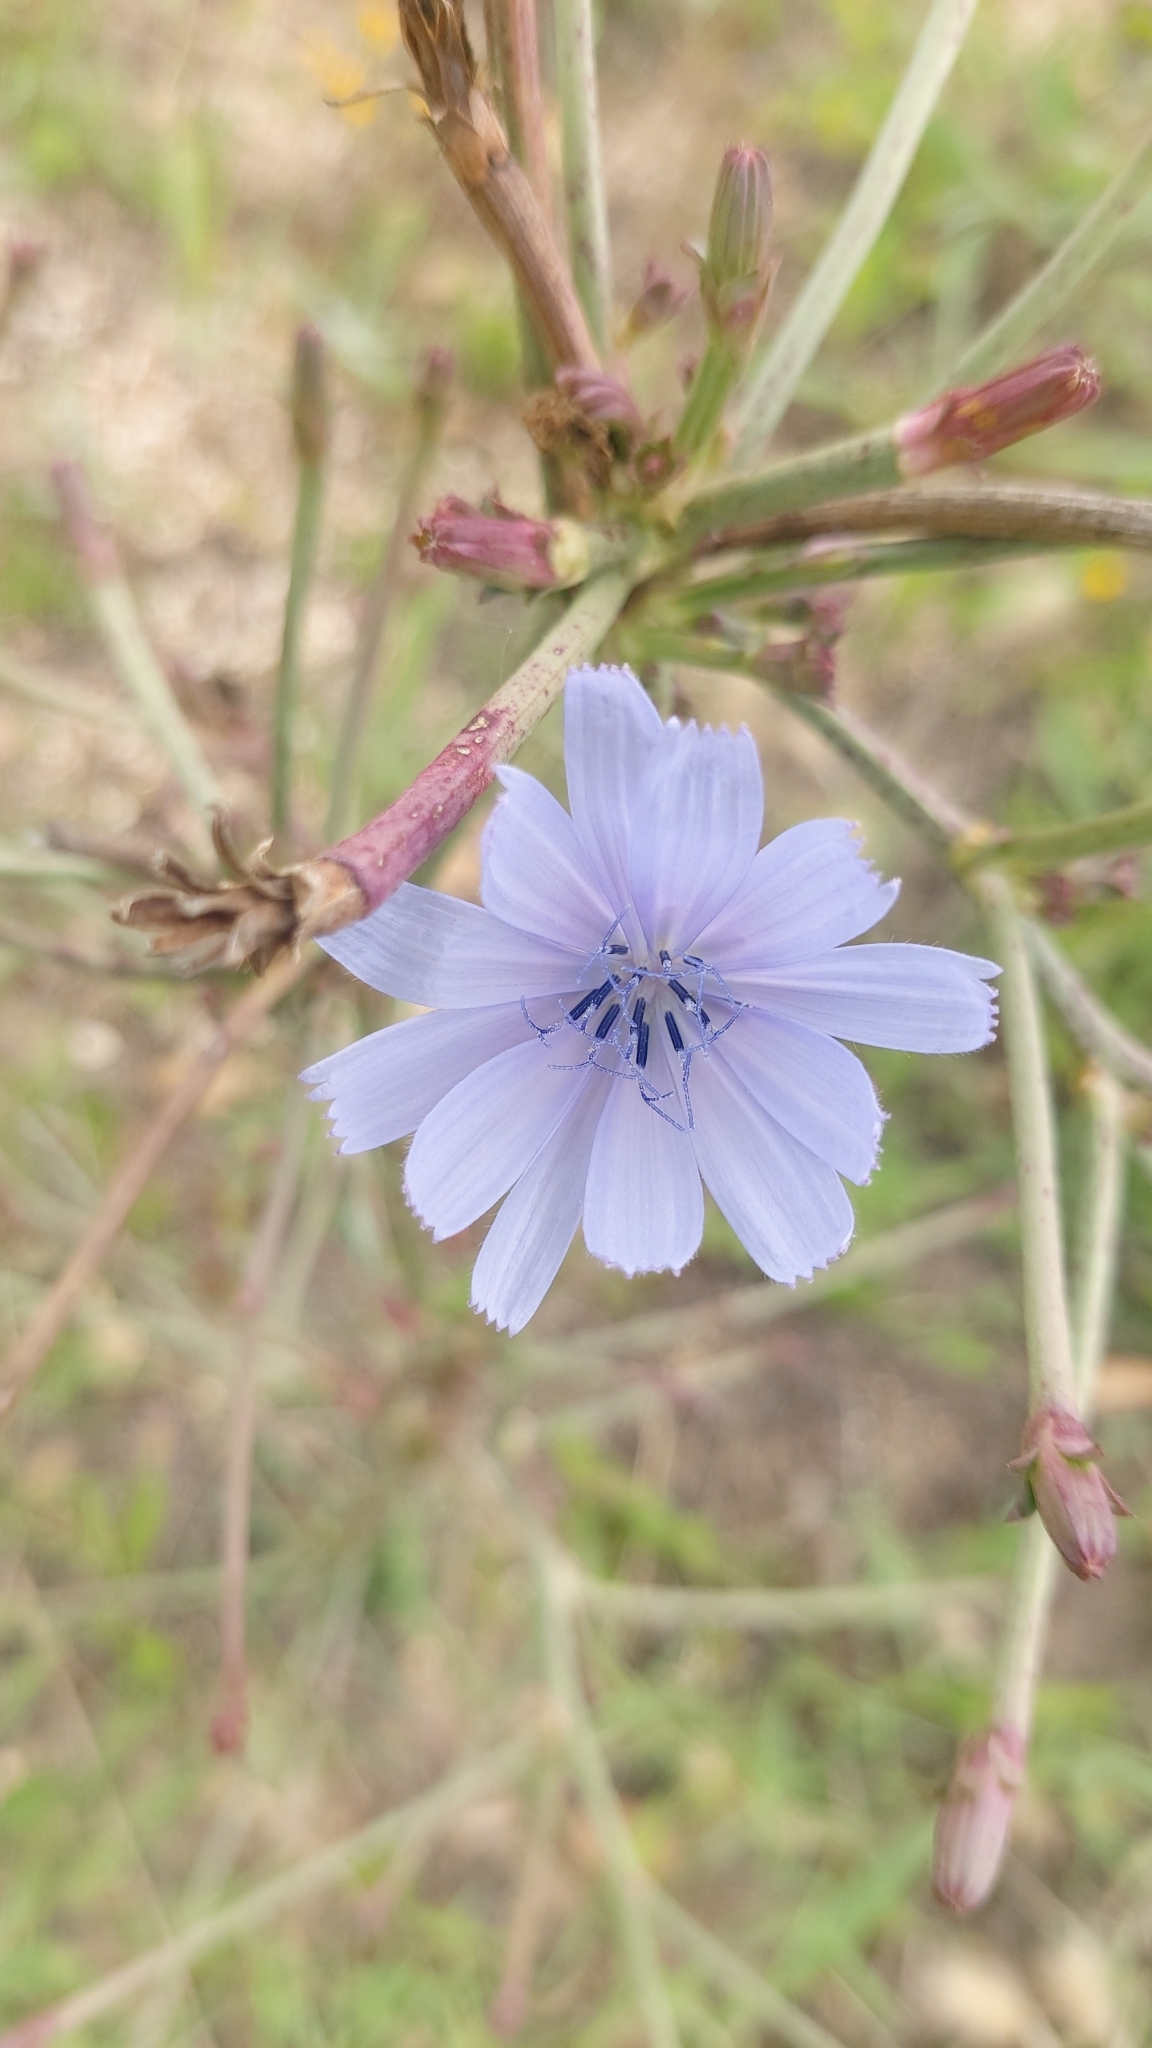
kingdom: Plantae
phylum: Tracheophyta
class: Magnoliopsida
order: Asterales
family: Asteraceae
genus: Cichorium
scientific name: Cichorium intybus
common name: Chicory
